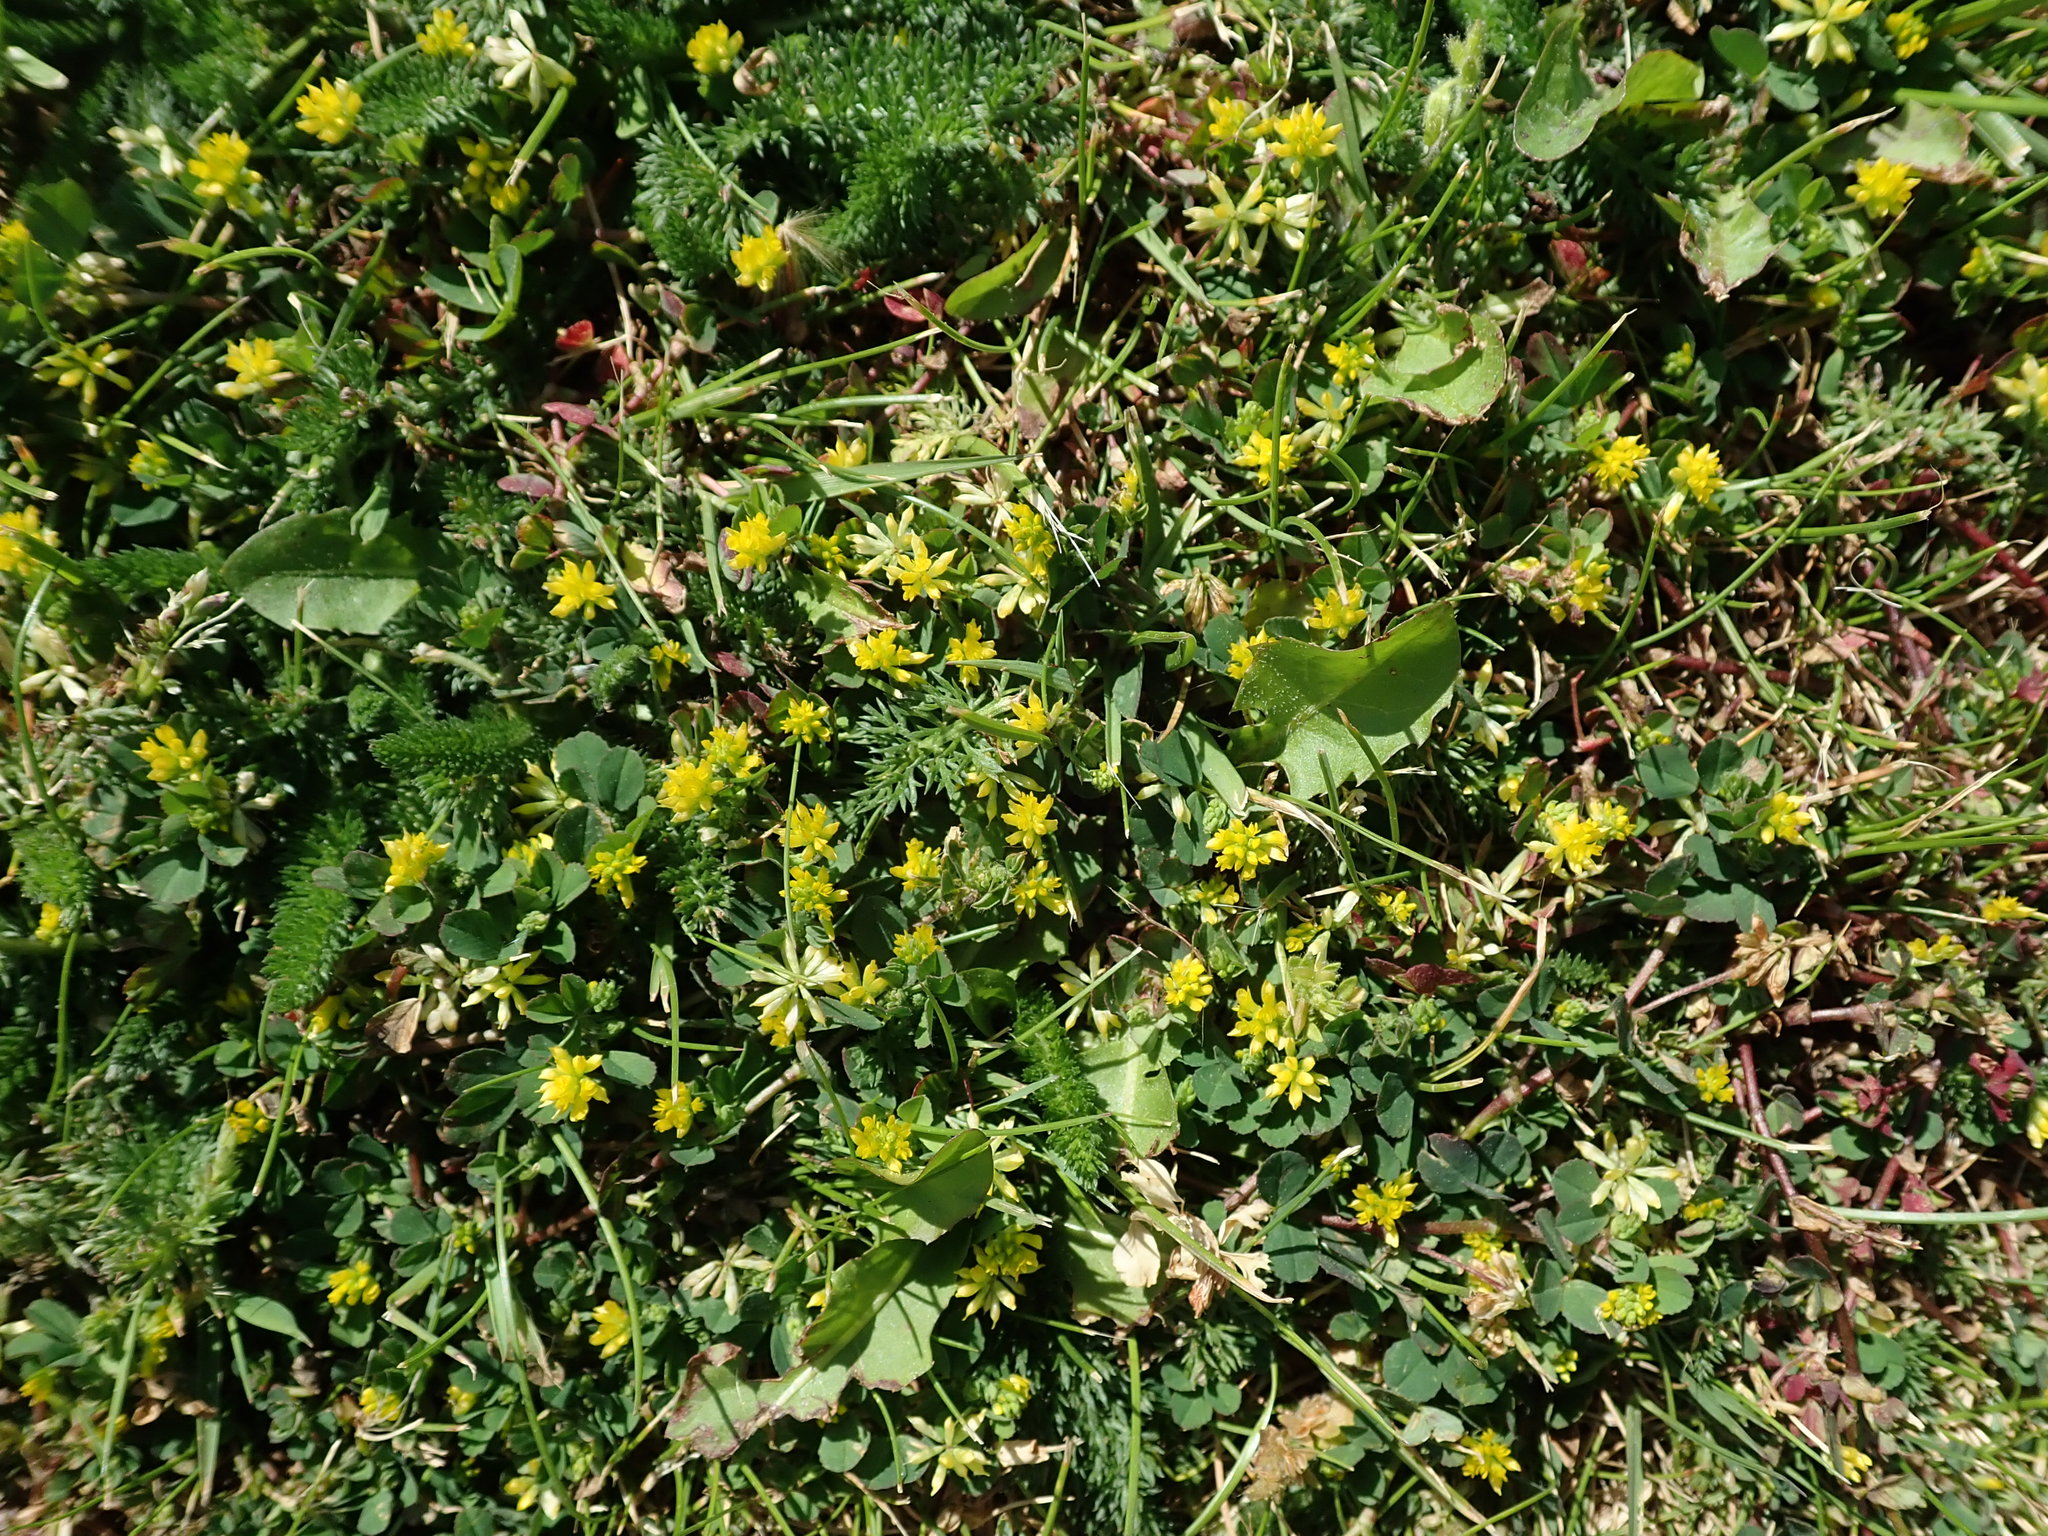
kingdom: Plantae
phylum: Tracheophyta
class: Magnoliopsida
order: Fabales
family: Fabaceae
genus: Trifolium
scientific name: Trifolium dubium
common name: Suckling clover
